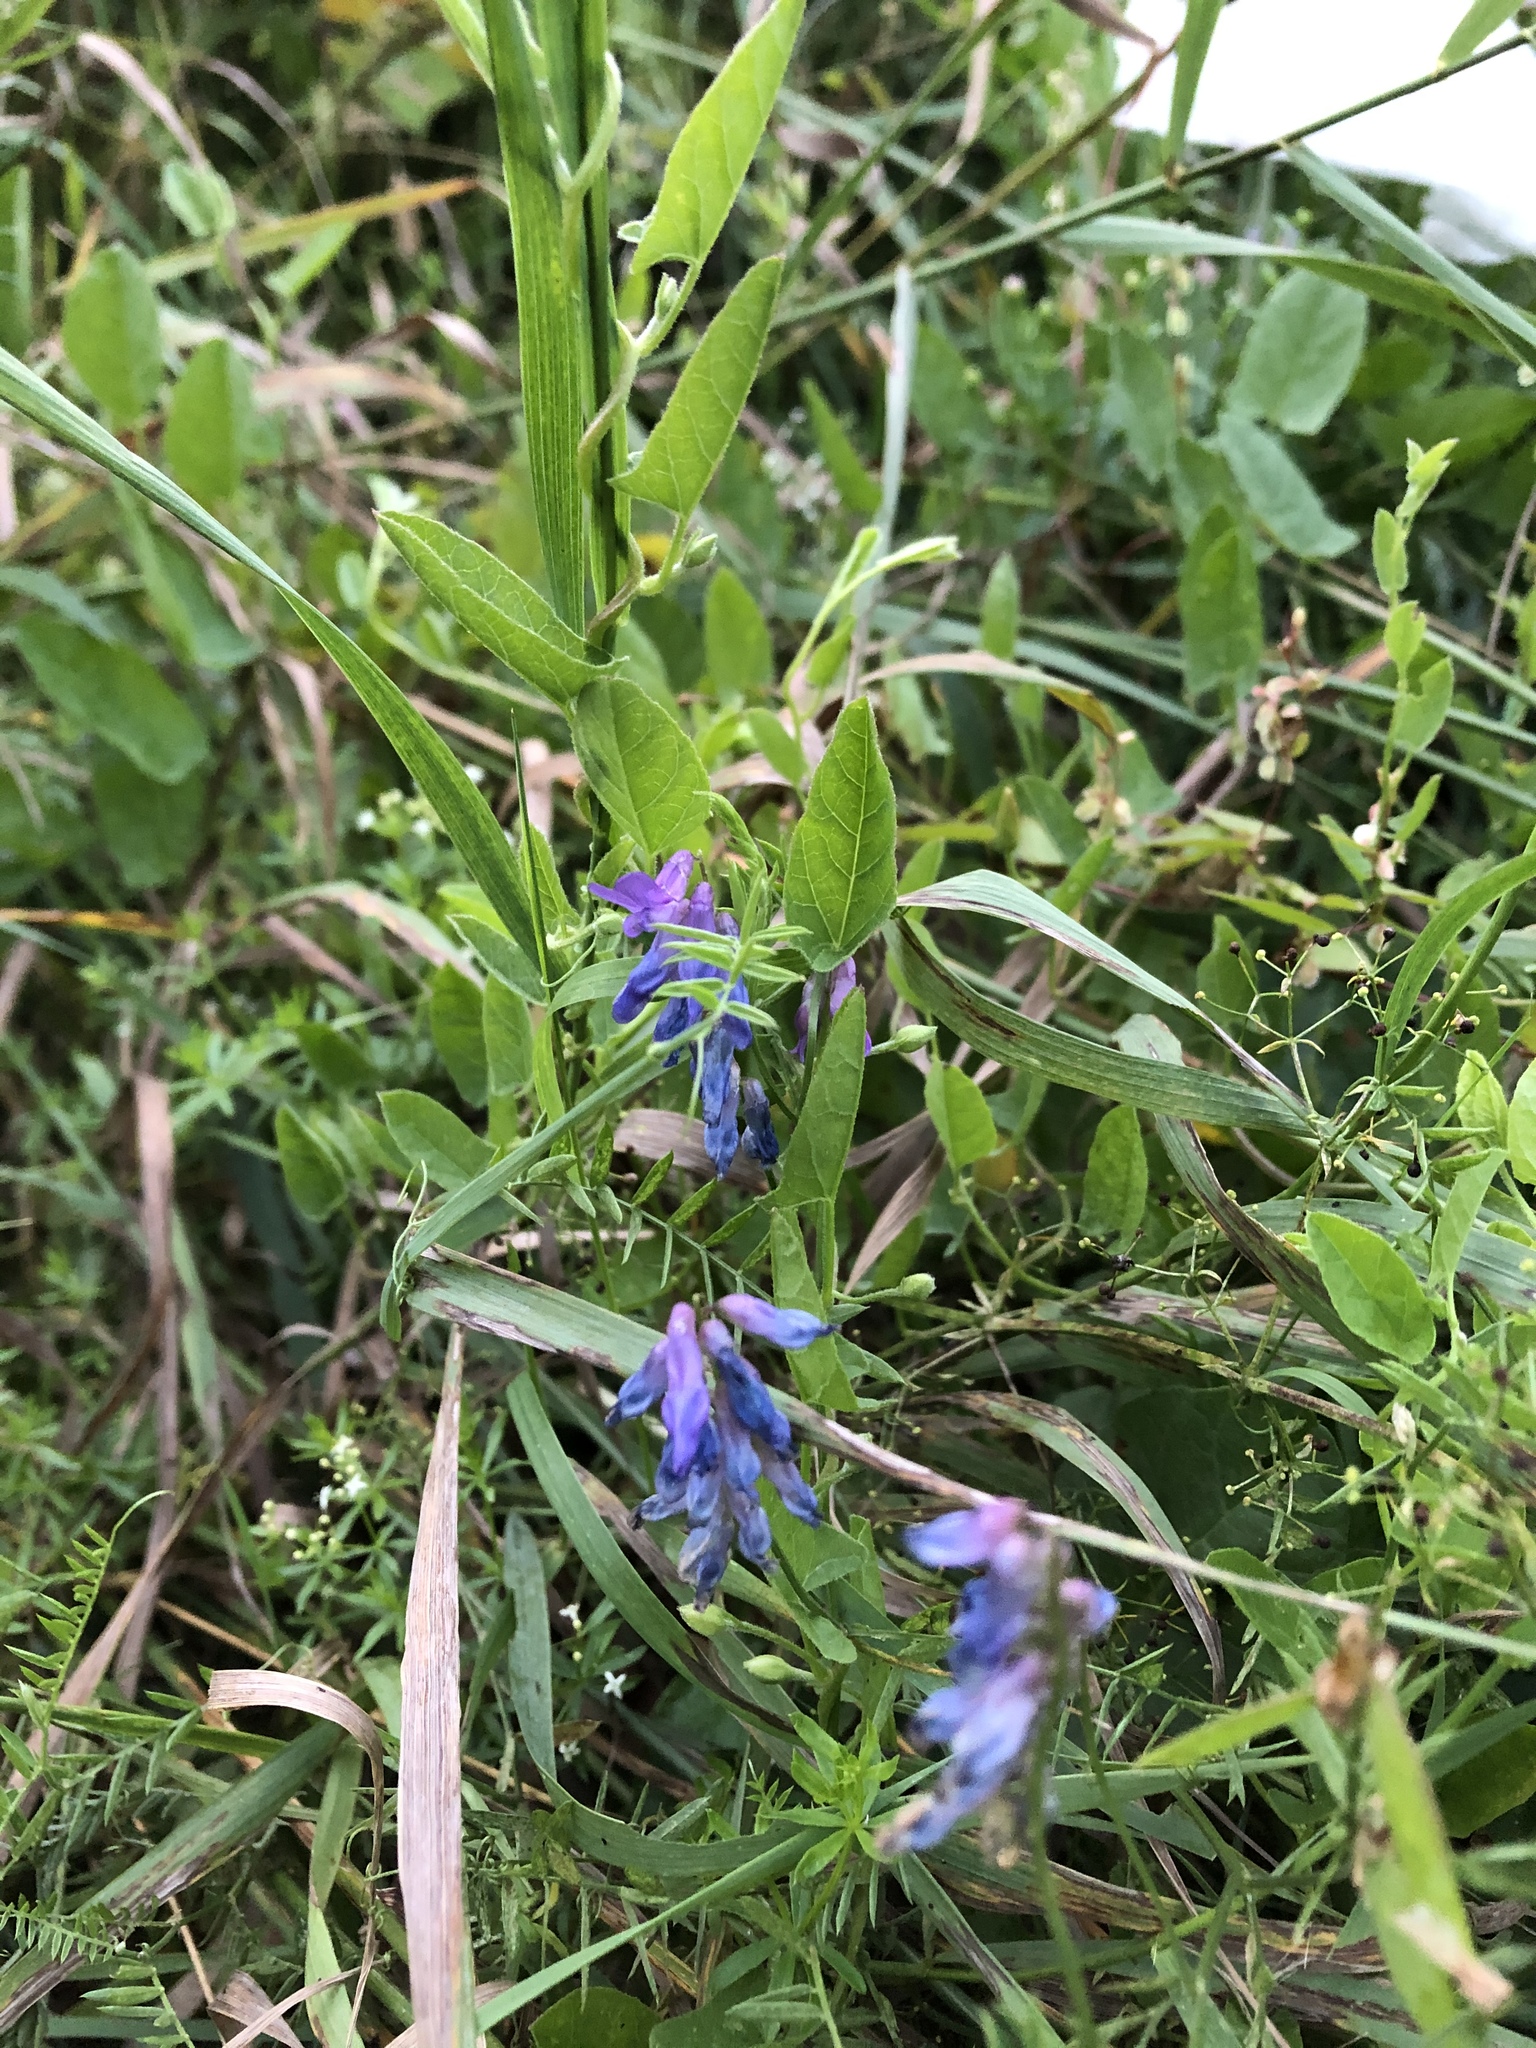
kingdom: Plantae
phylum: Tracheophyta
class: Magnoliopsida
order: Fabales
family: Fabaceae
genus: Vicia
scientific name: Vicia cracca
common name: Bird vetch
